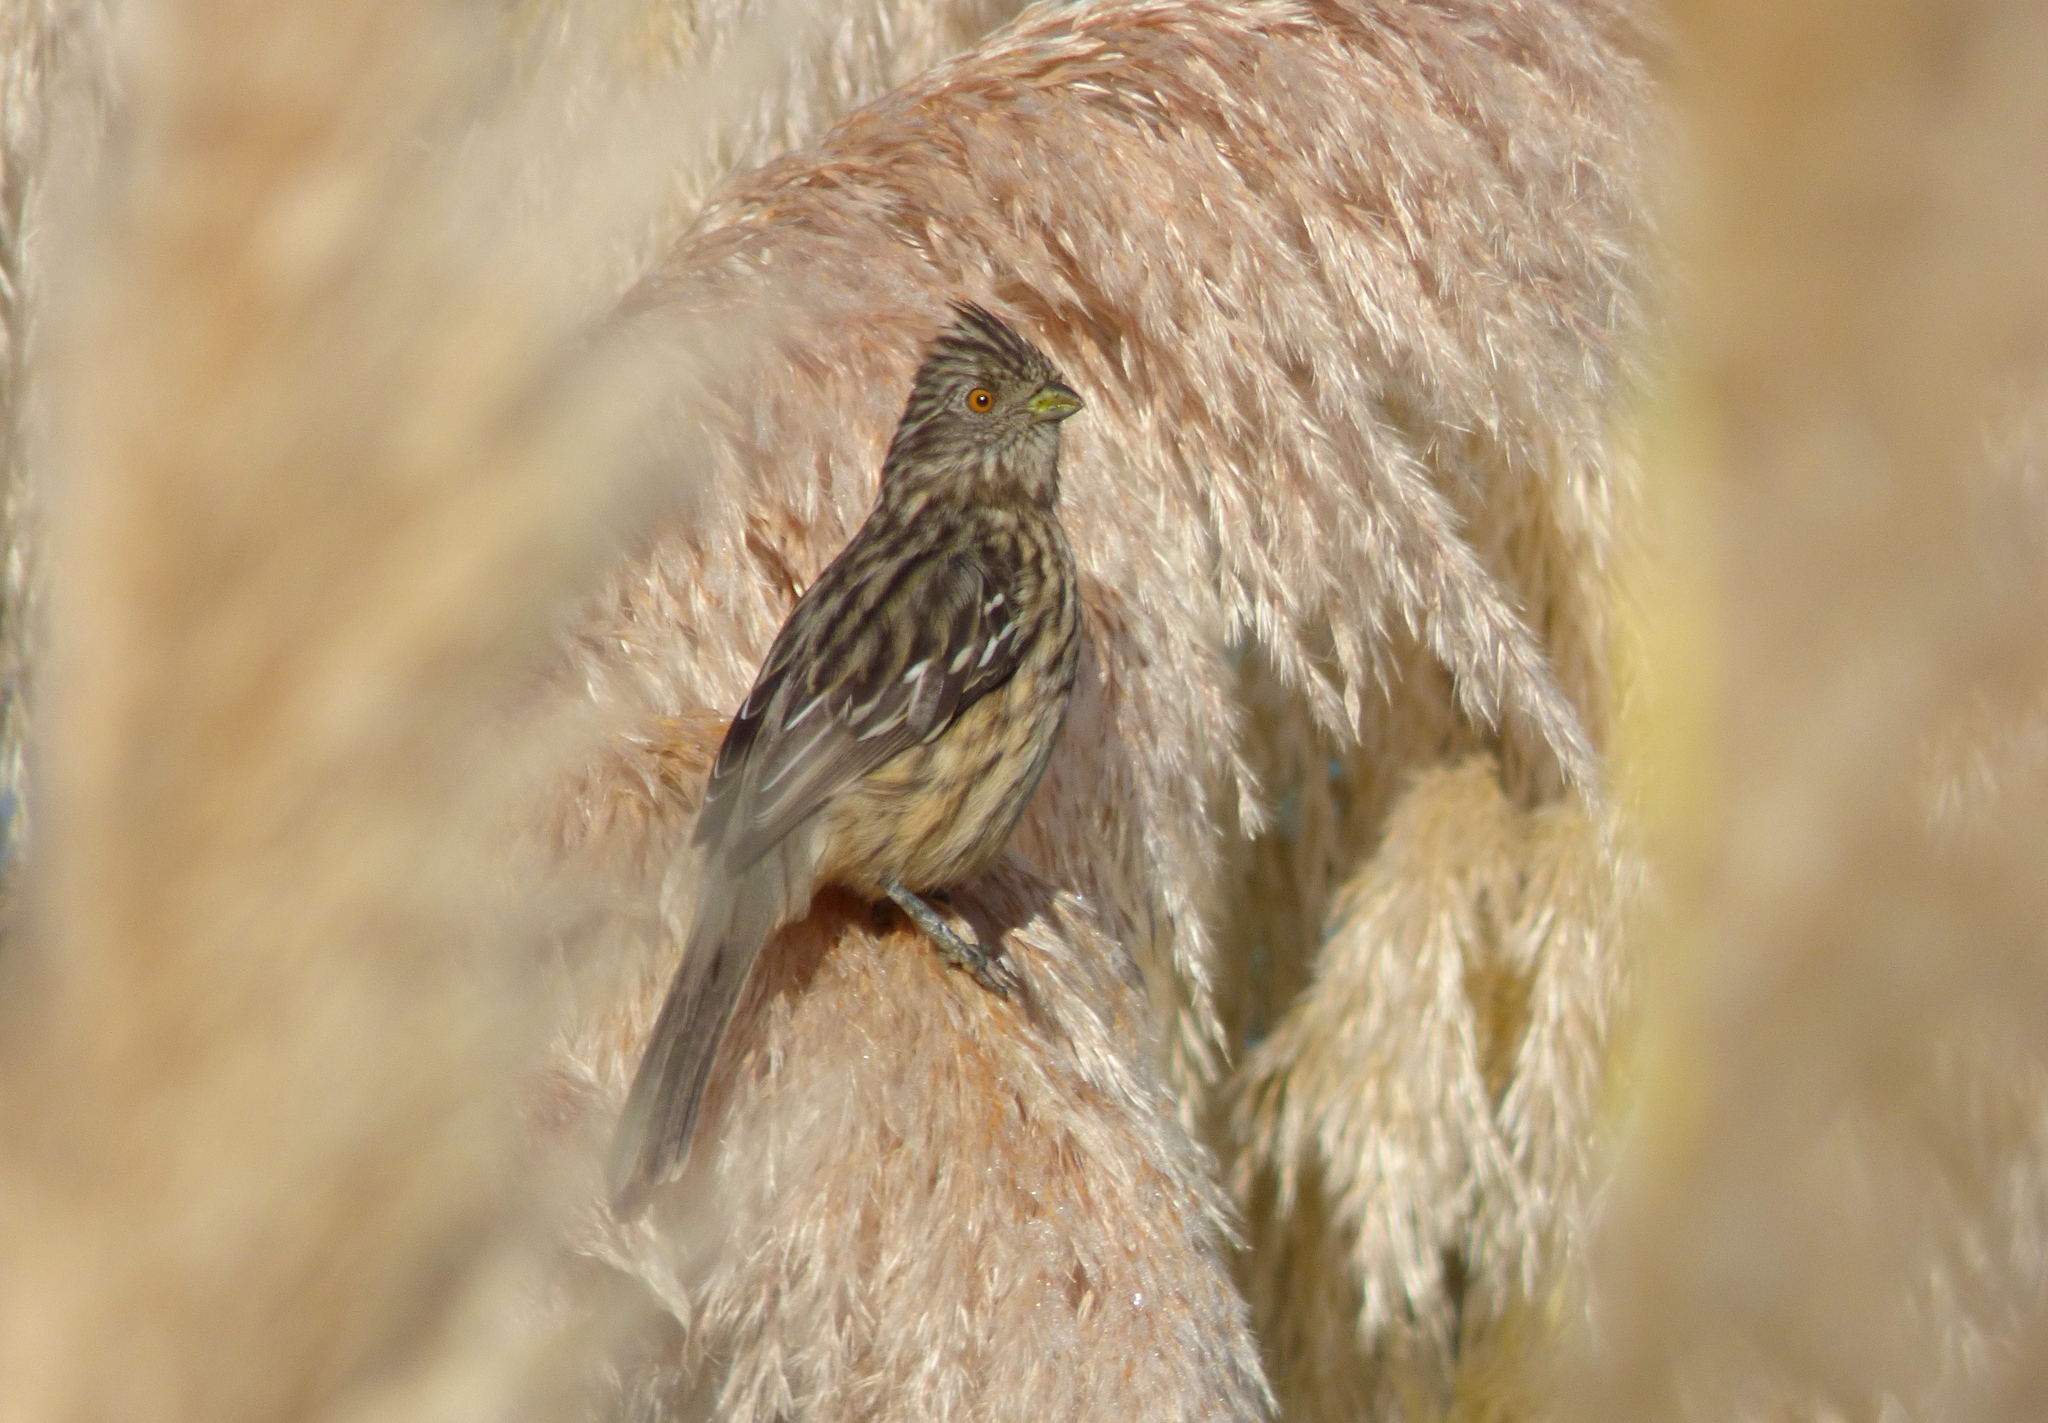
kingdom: Animalia
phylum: Chordata
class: Aves
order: Passeriformes
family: Cotingidae
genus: Phytotoma
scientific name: Phytotoma rutila
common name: White-tipped plantcutter
